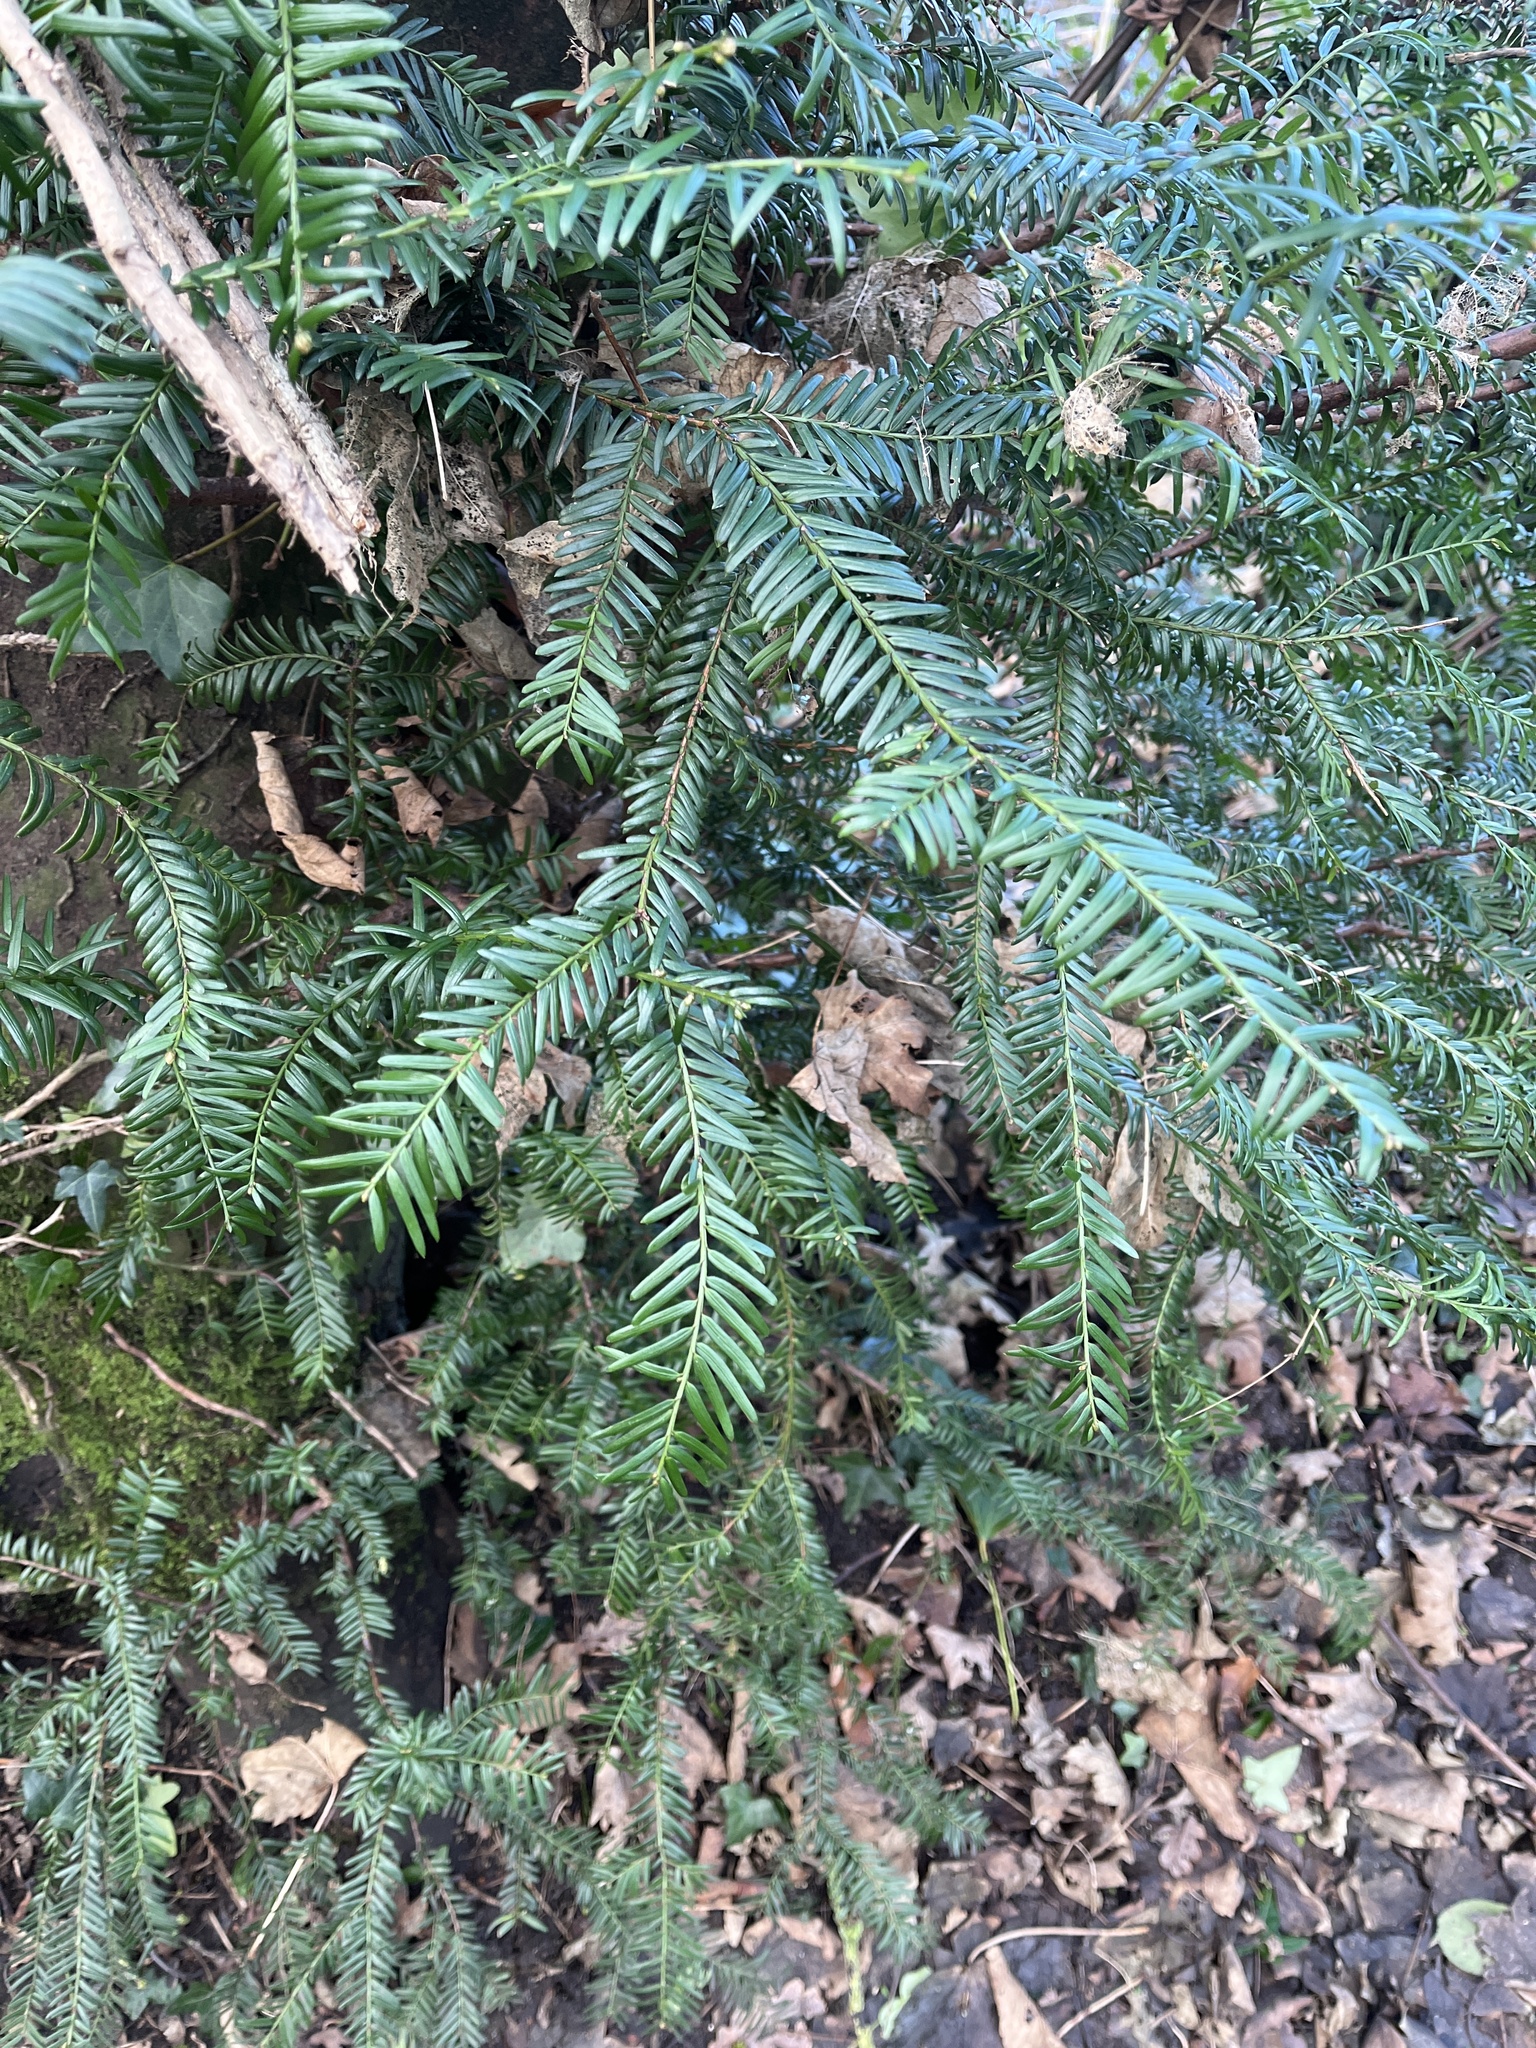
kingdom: Plantae
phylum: Tracheophyta
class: Pinopsida
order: Pinales
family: Taxaceae
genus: Taxus
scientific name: Taxus baccata
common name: Yew
